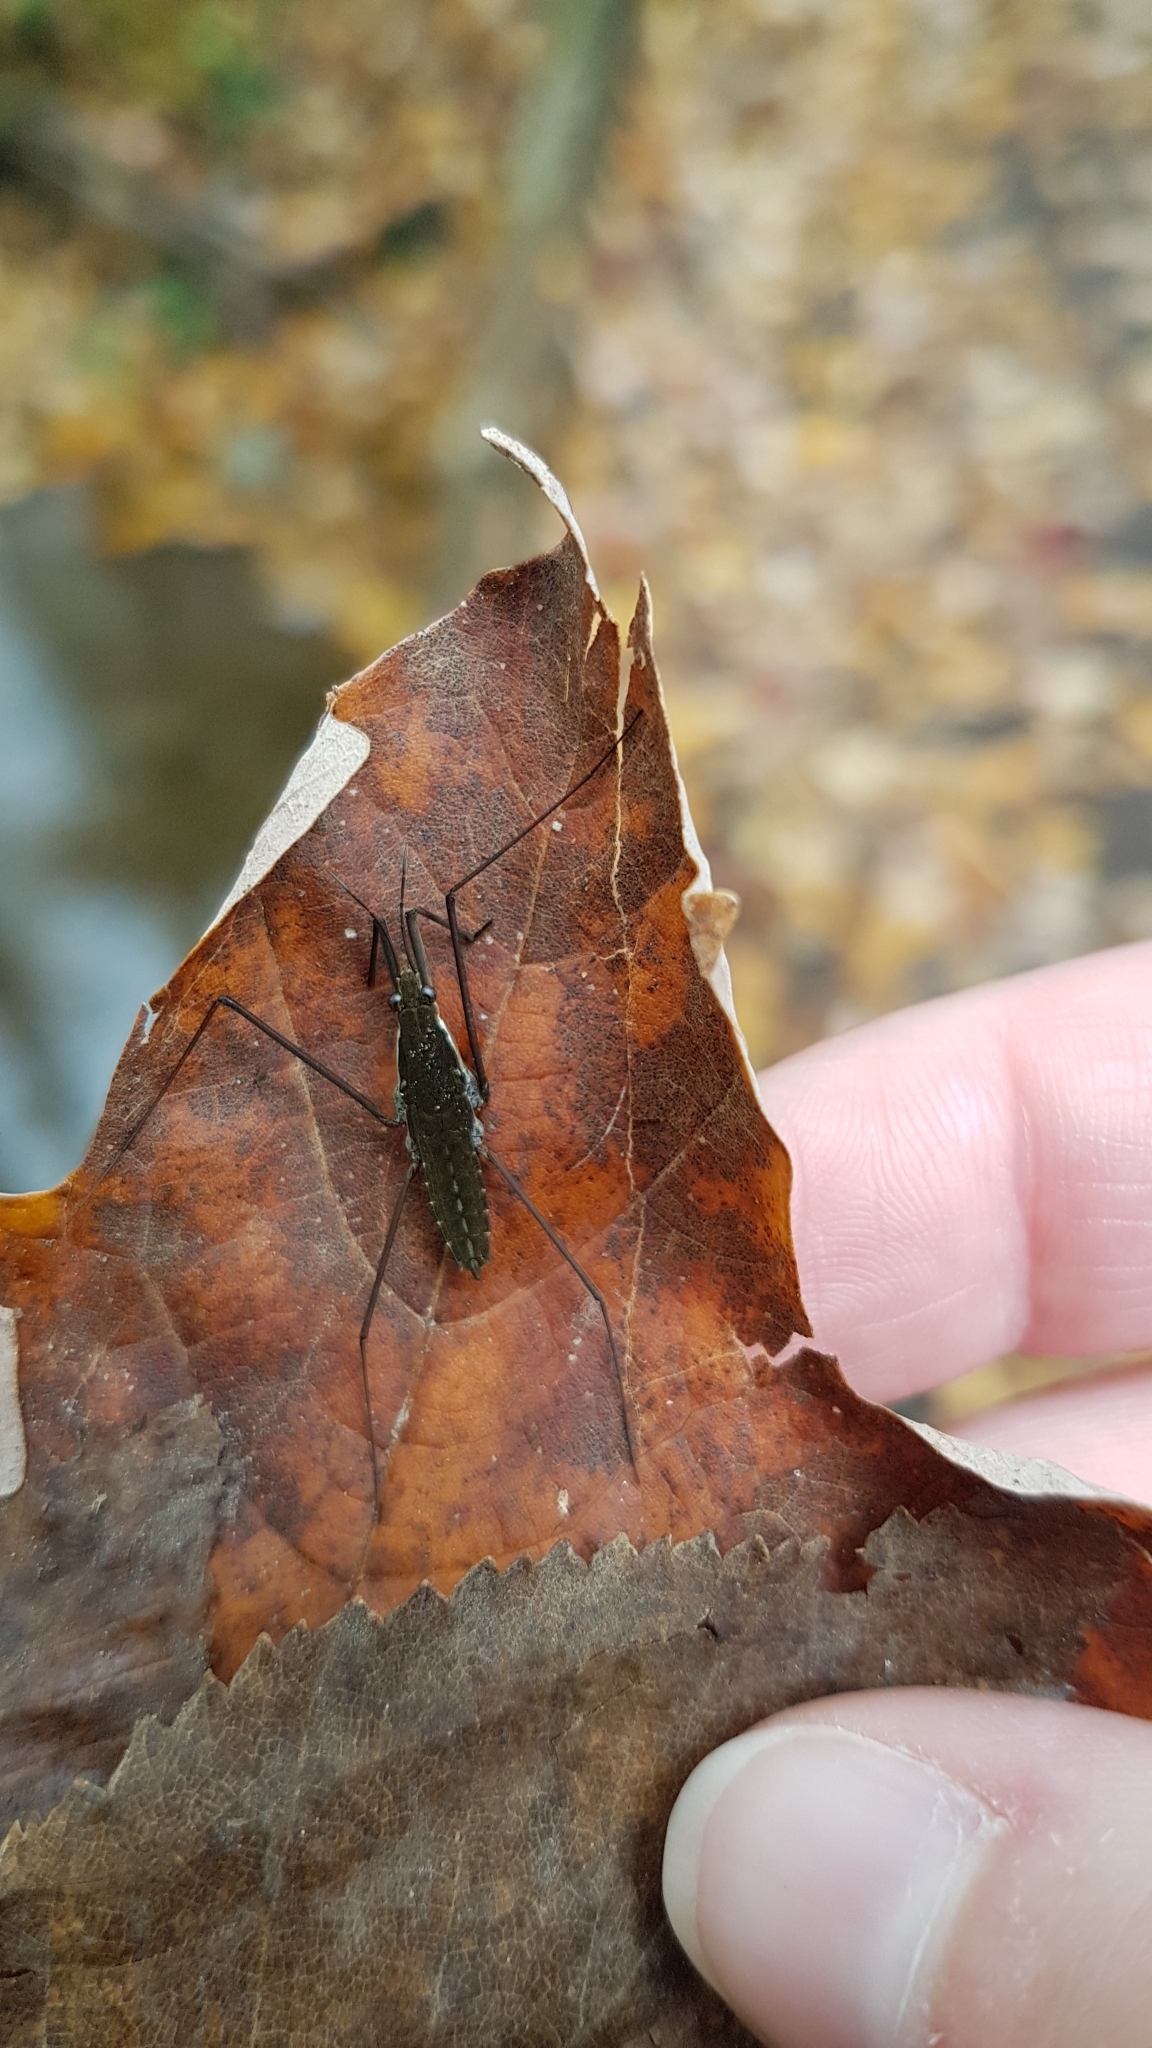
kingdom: Animalia
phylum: Arthropoda
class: Insecta
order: Hemiptera
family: Gerridae
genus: Aquarius
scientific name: Aquarius remigis
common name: Common water strider
